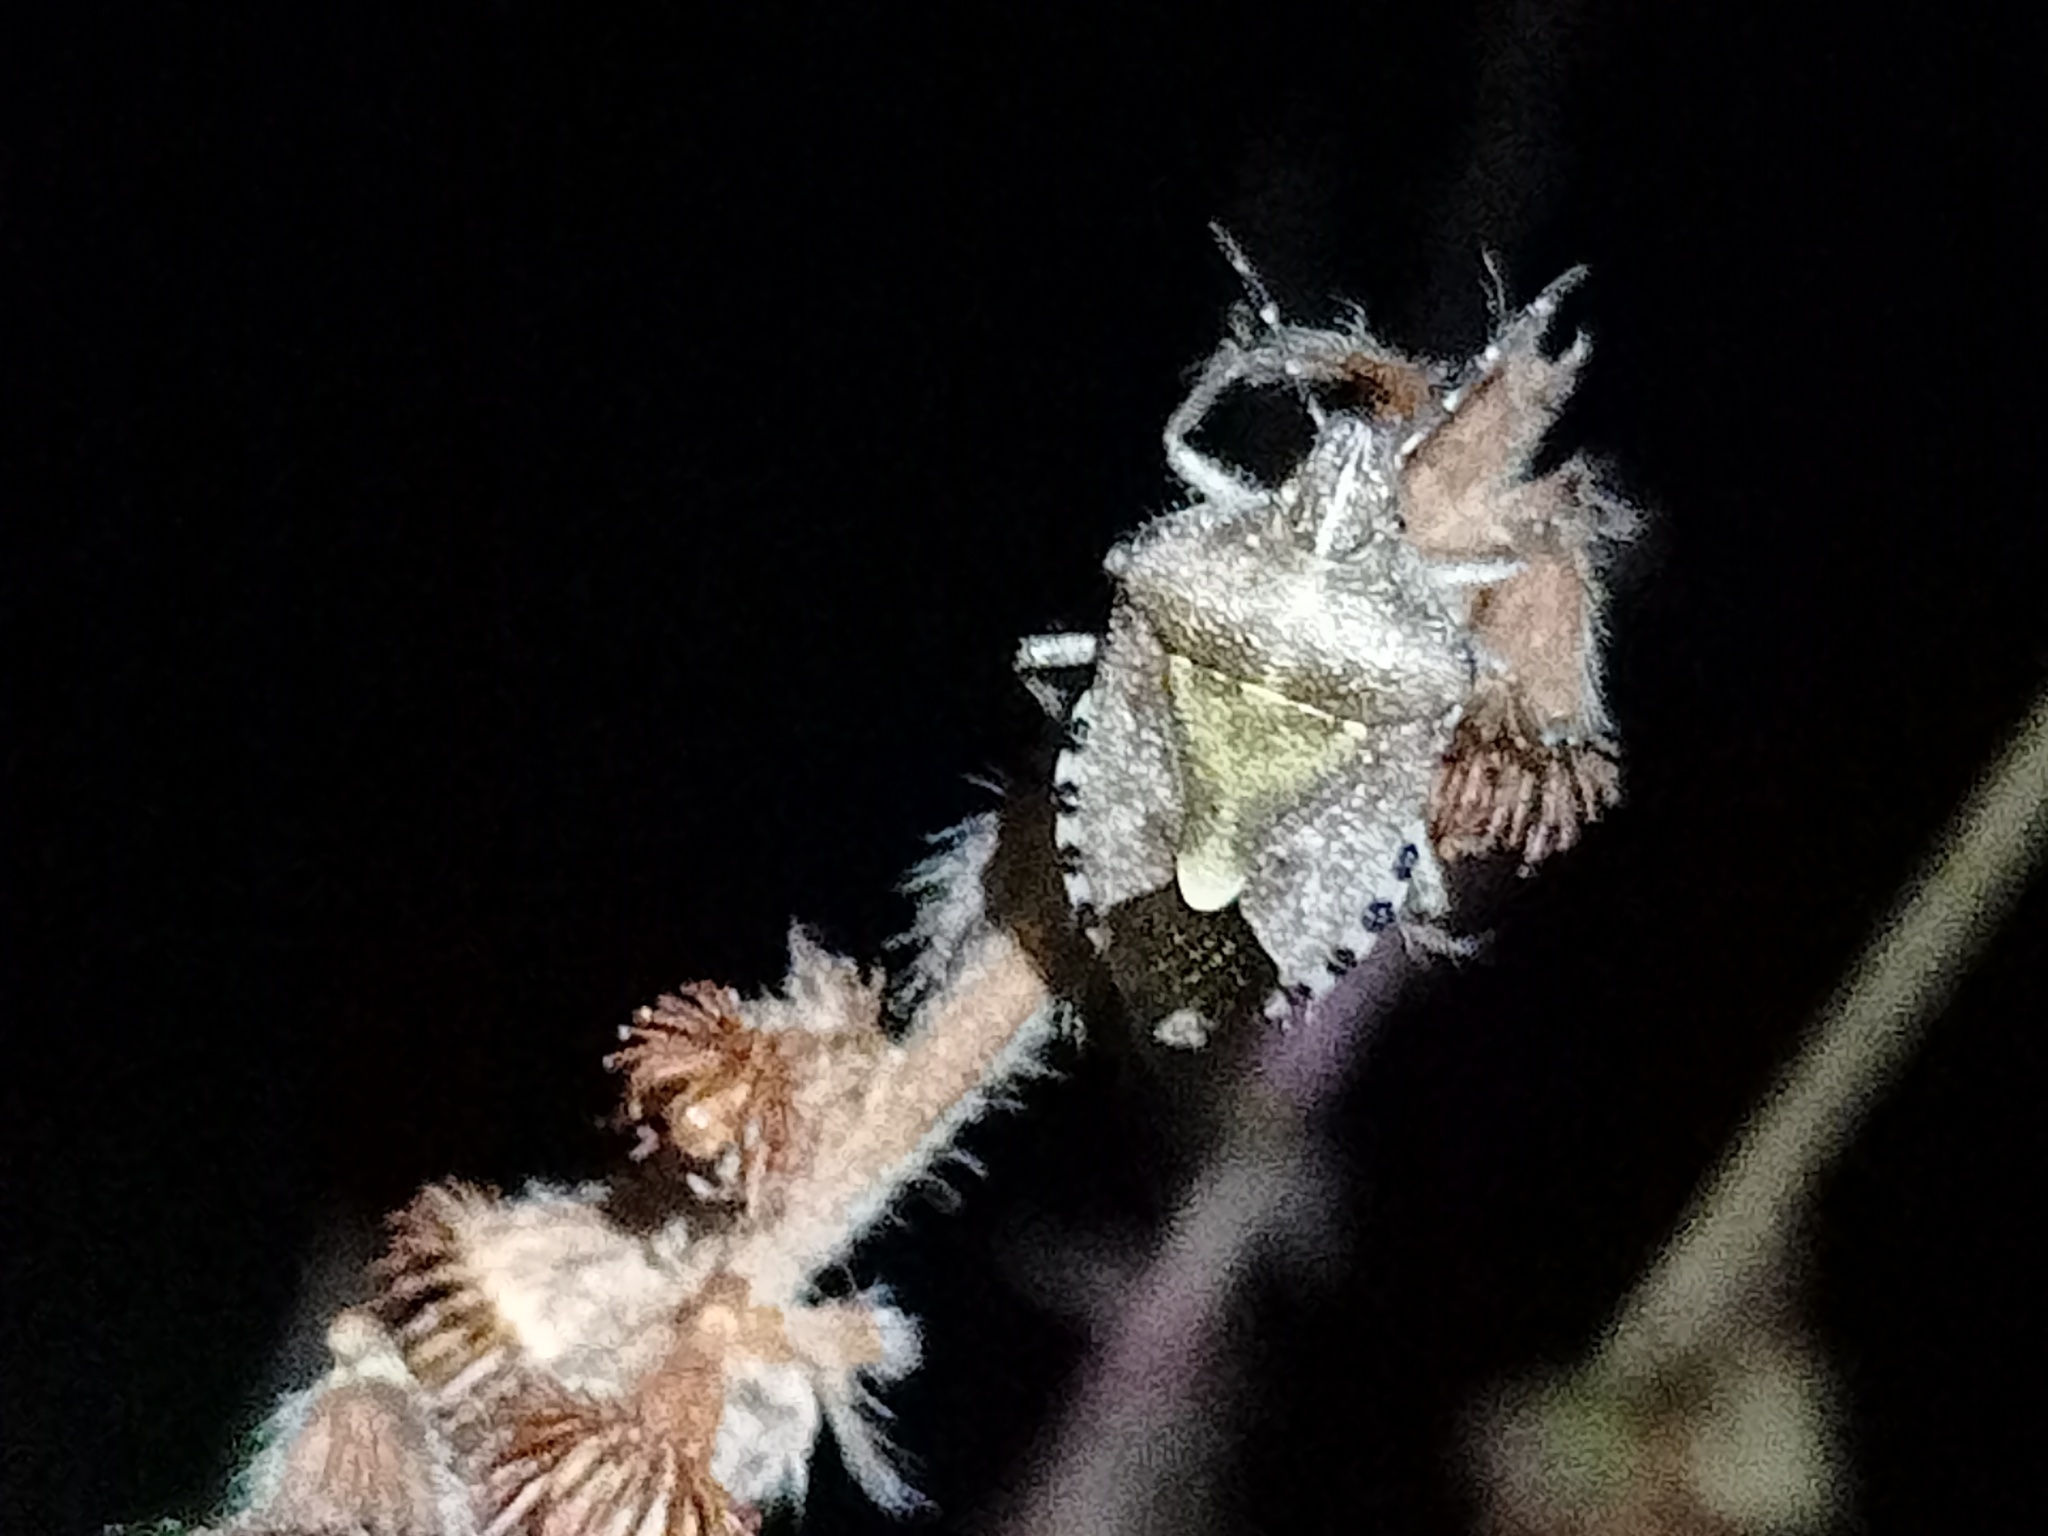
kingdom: Animalia
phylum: Arthropoda
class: Insecta
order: Hemiptera
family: Pentatomidae
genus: Dolycoris
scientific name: Dolycoris baccarum
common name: Sloe bug
